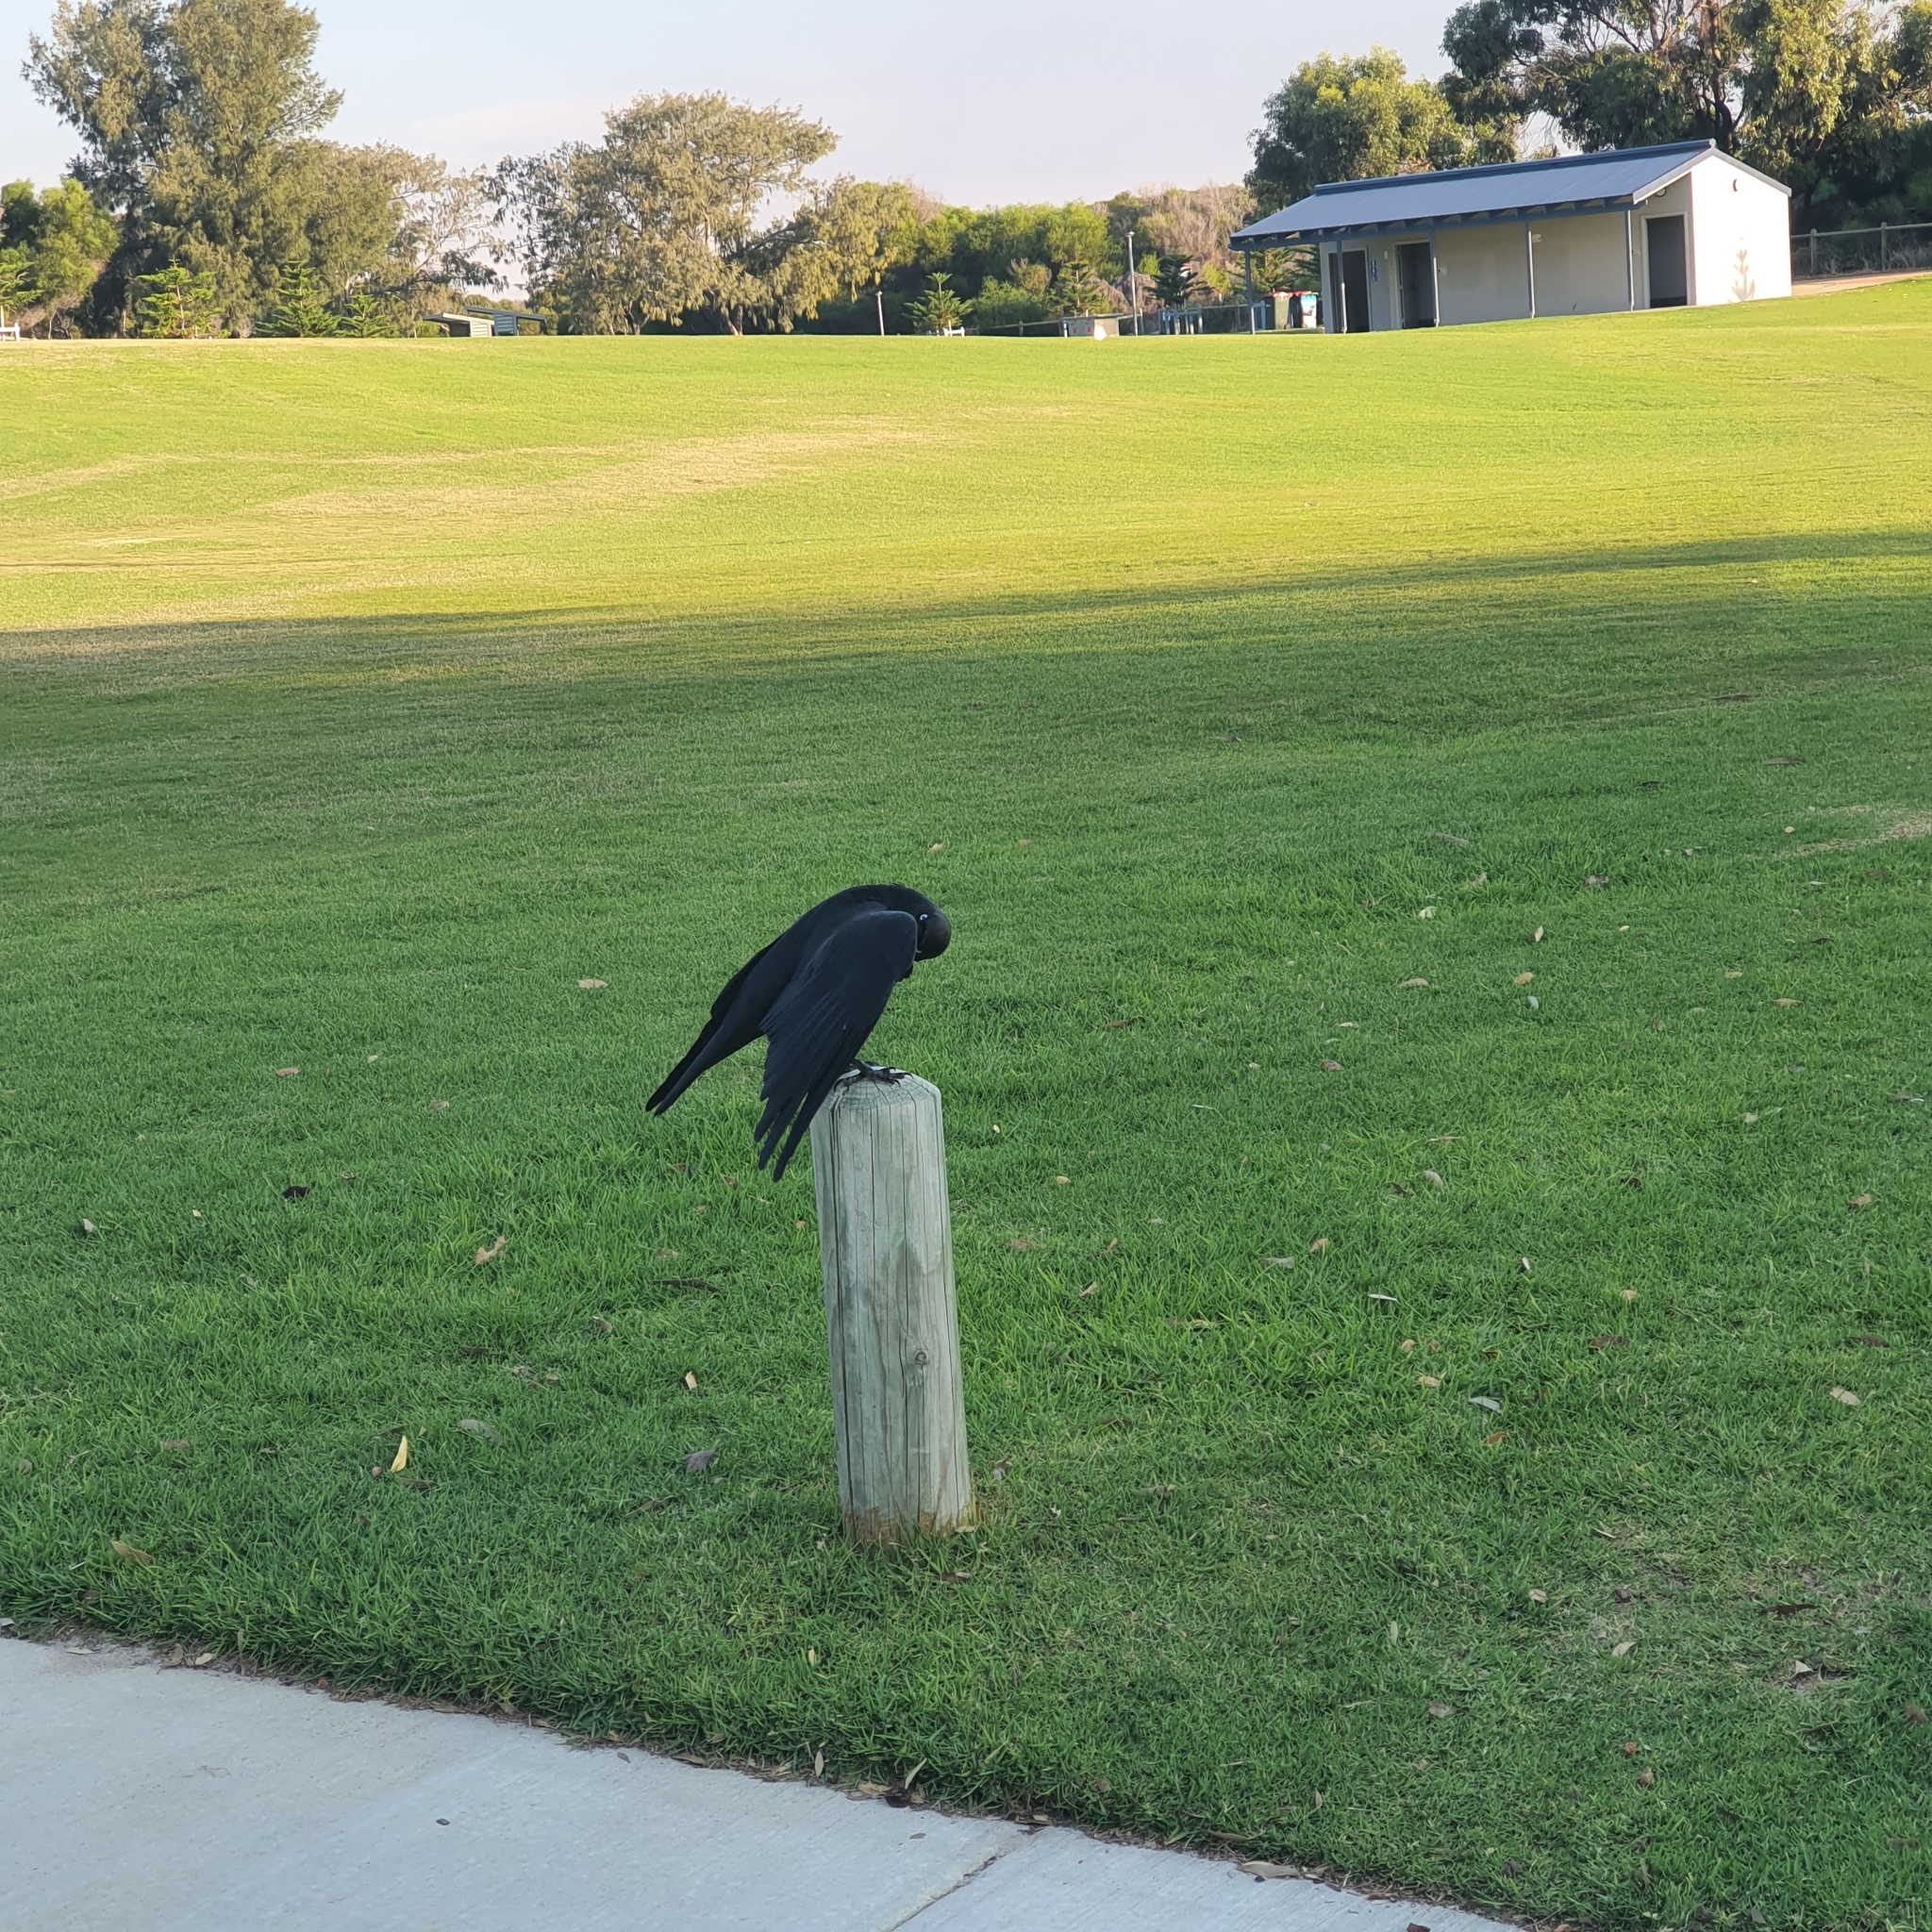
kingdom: Animalia
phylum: Chordata
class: Aves
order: Passeriformes
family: Corvidae
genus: Corvus
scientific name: Corvus coronoides
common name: Australian raven
